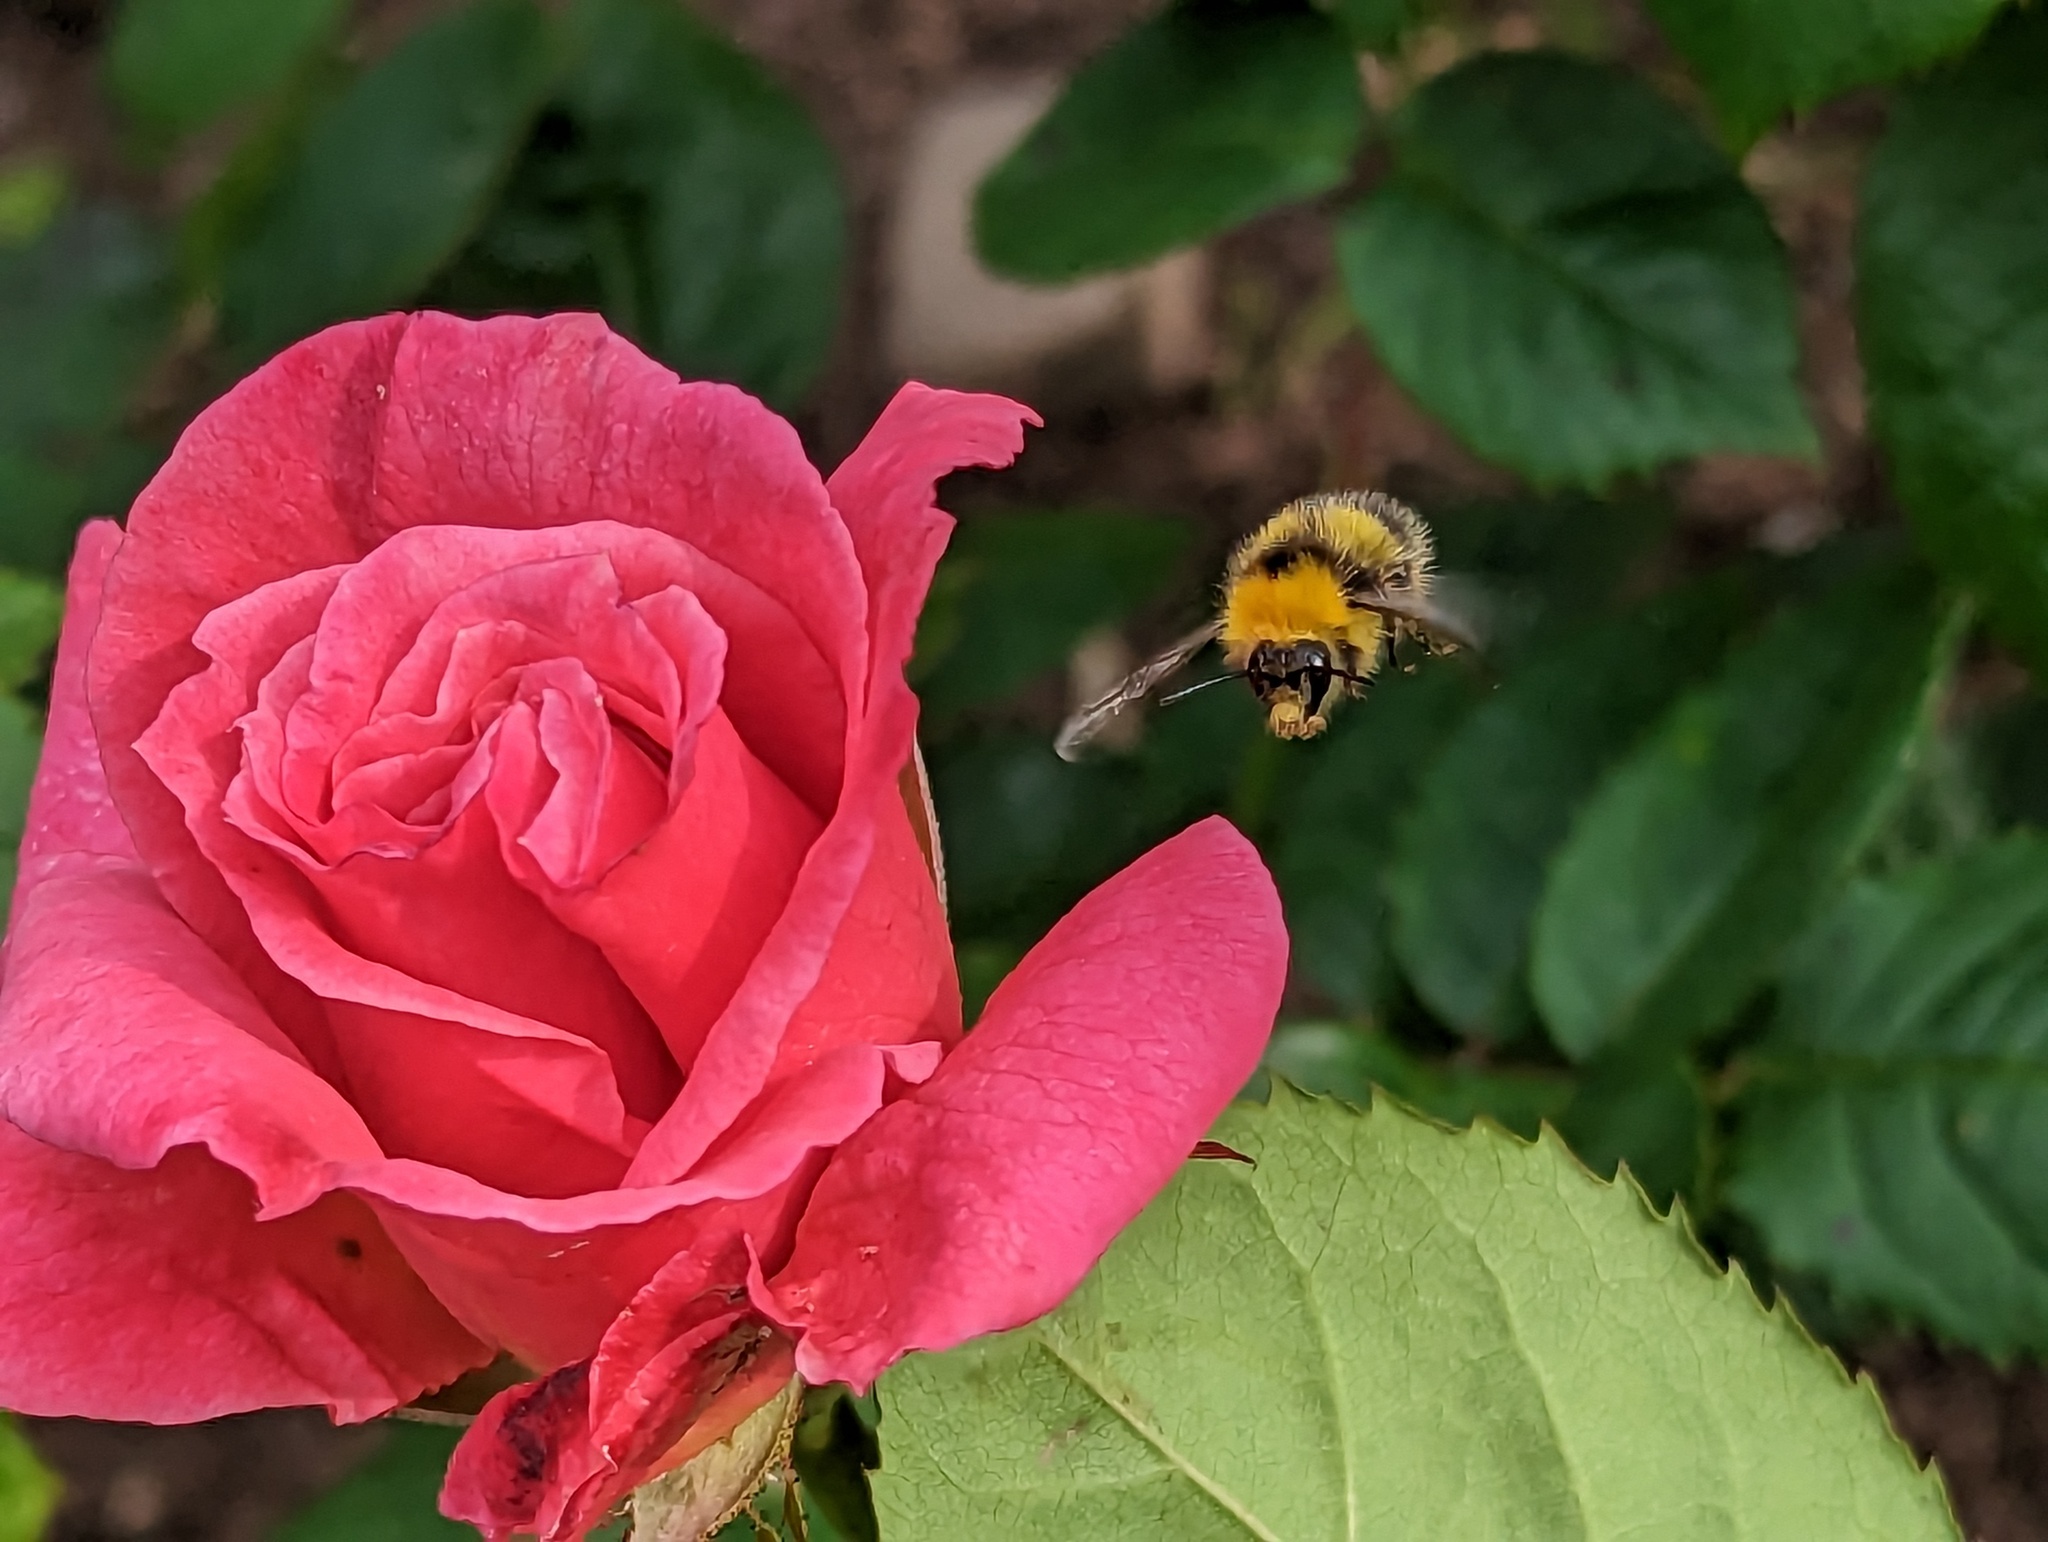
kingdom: Animalia
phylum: Arthropoda
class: Insecta
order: Hymenoptera
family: Apidae
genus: Bombus
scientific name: Bombus pratorum
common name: Early humble-bee
